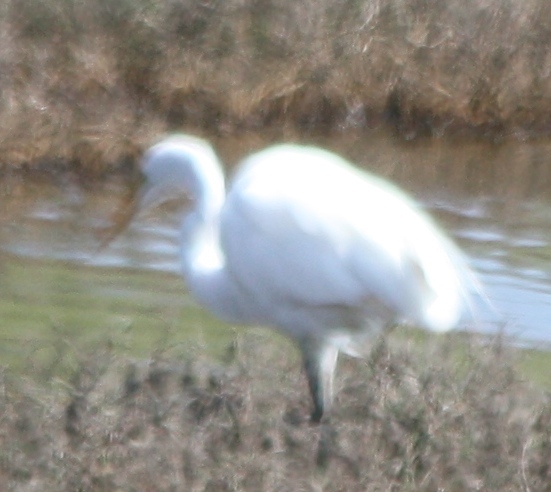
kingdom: Animalia
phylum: Chordata
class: Aves
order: Pelecaniformes
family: Ardeidae
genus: Ardea
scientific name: Ardea alba
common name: Great egret
